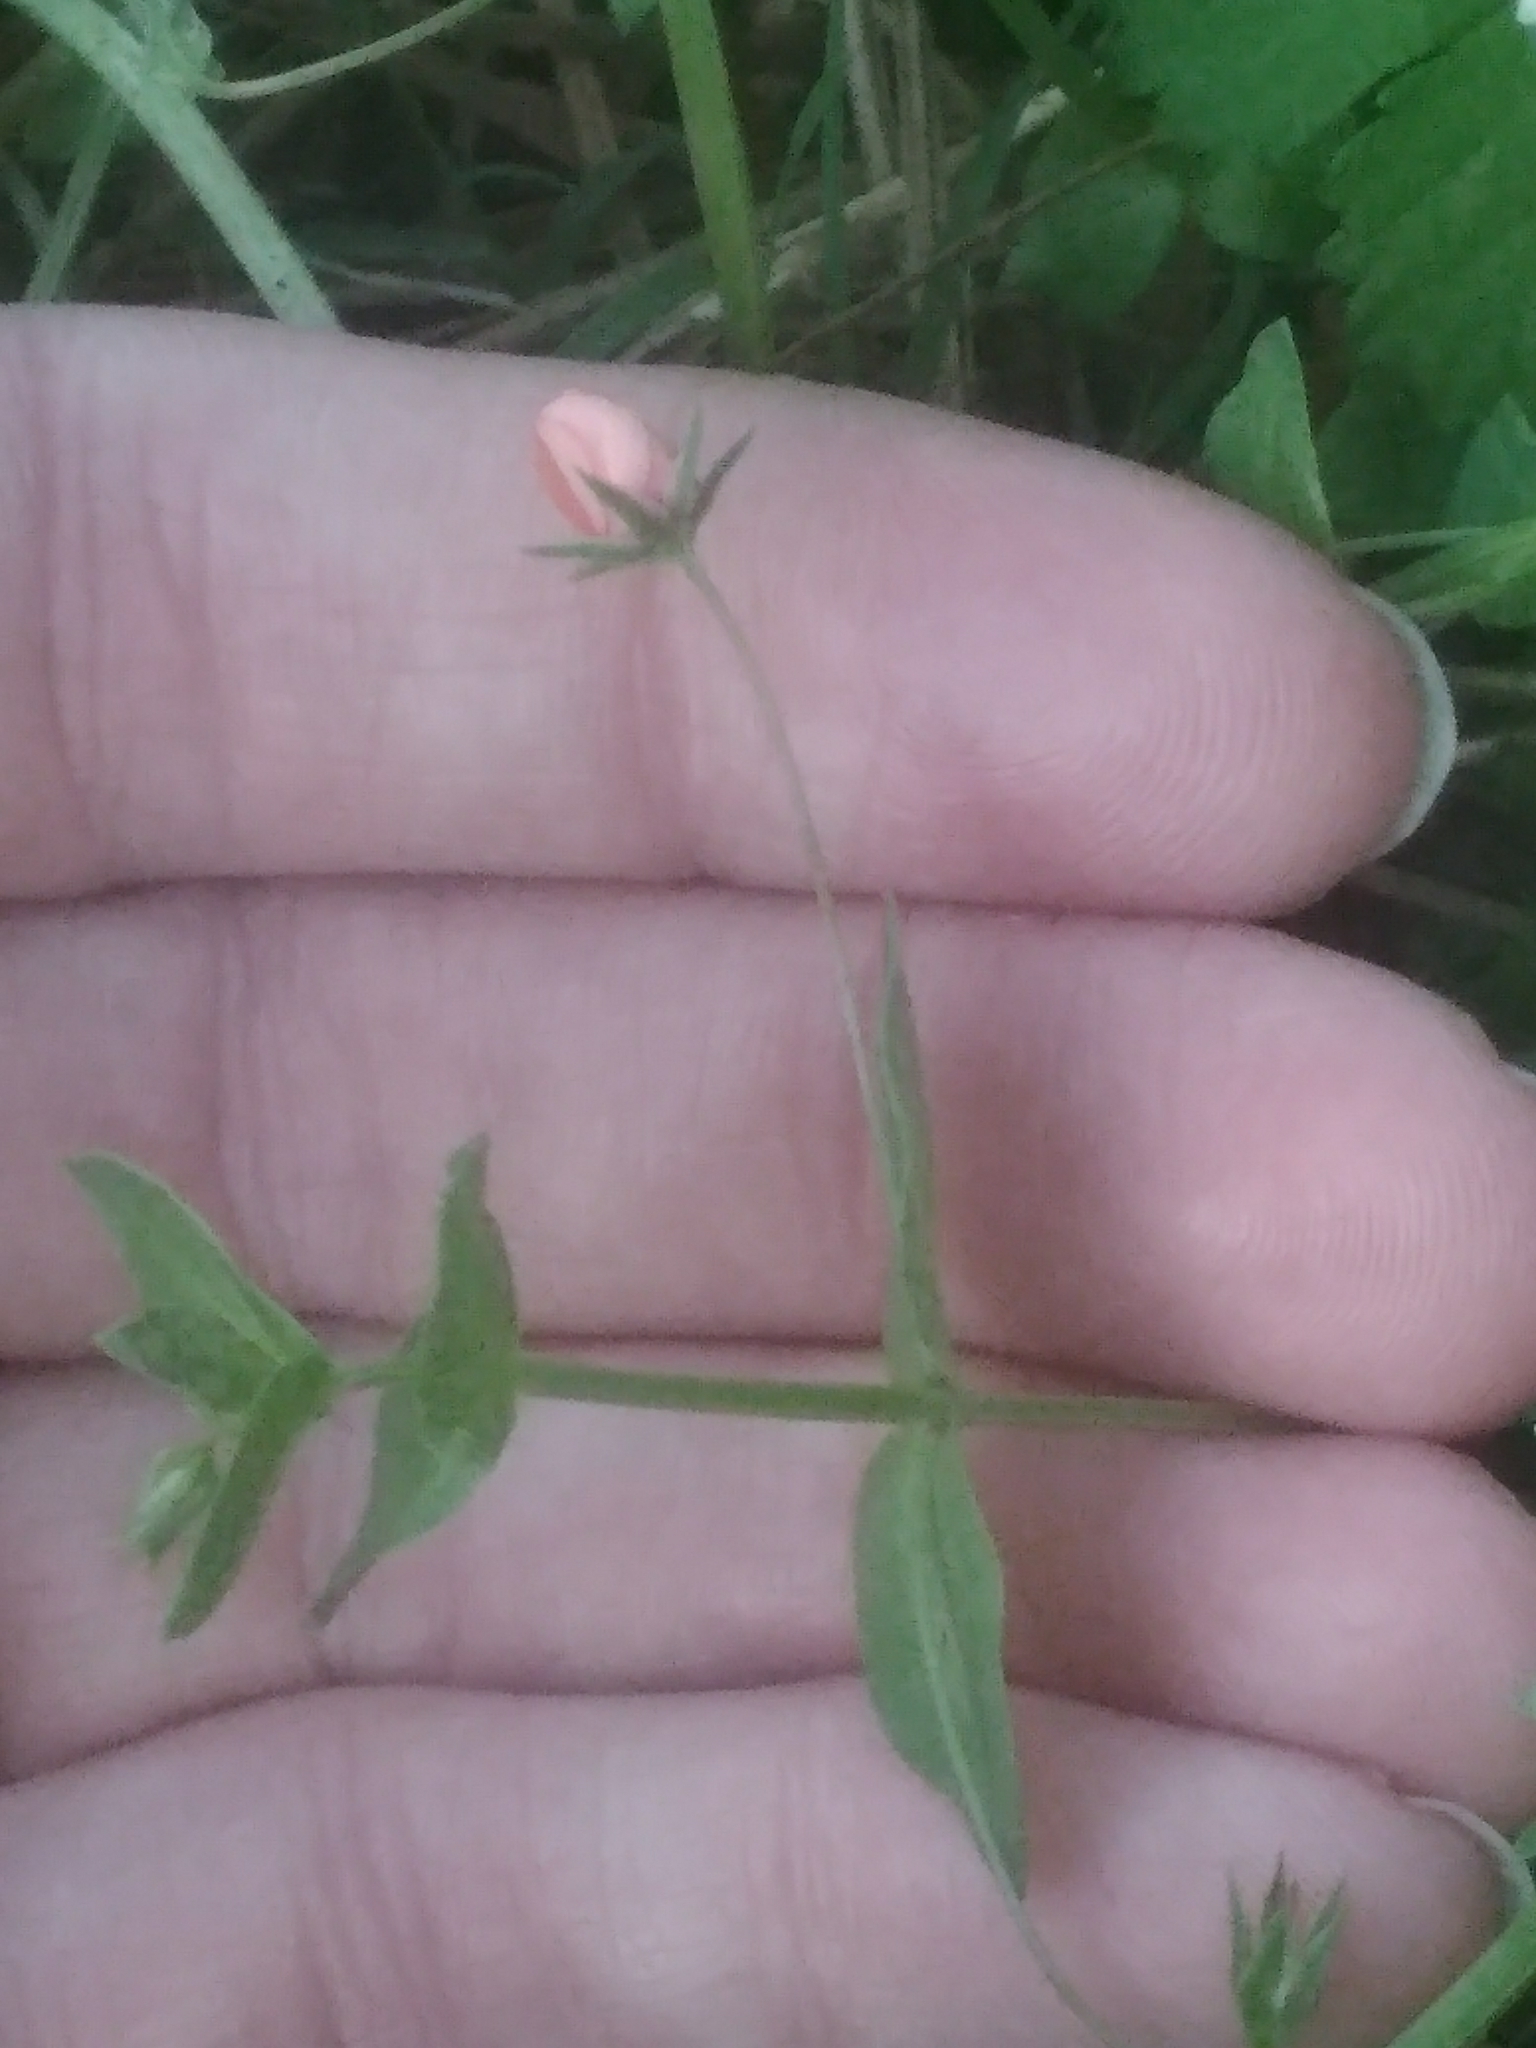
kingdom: Plantae
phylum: Tracheophyta
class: Magnoliopsida
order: Ericales
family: Primulaceae
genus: Lysimachia
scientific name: Lysimachia arvensis
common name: Scarlet pimpernel
